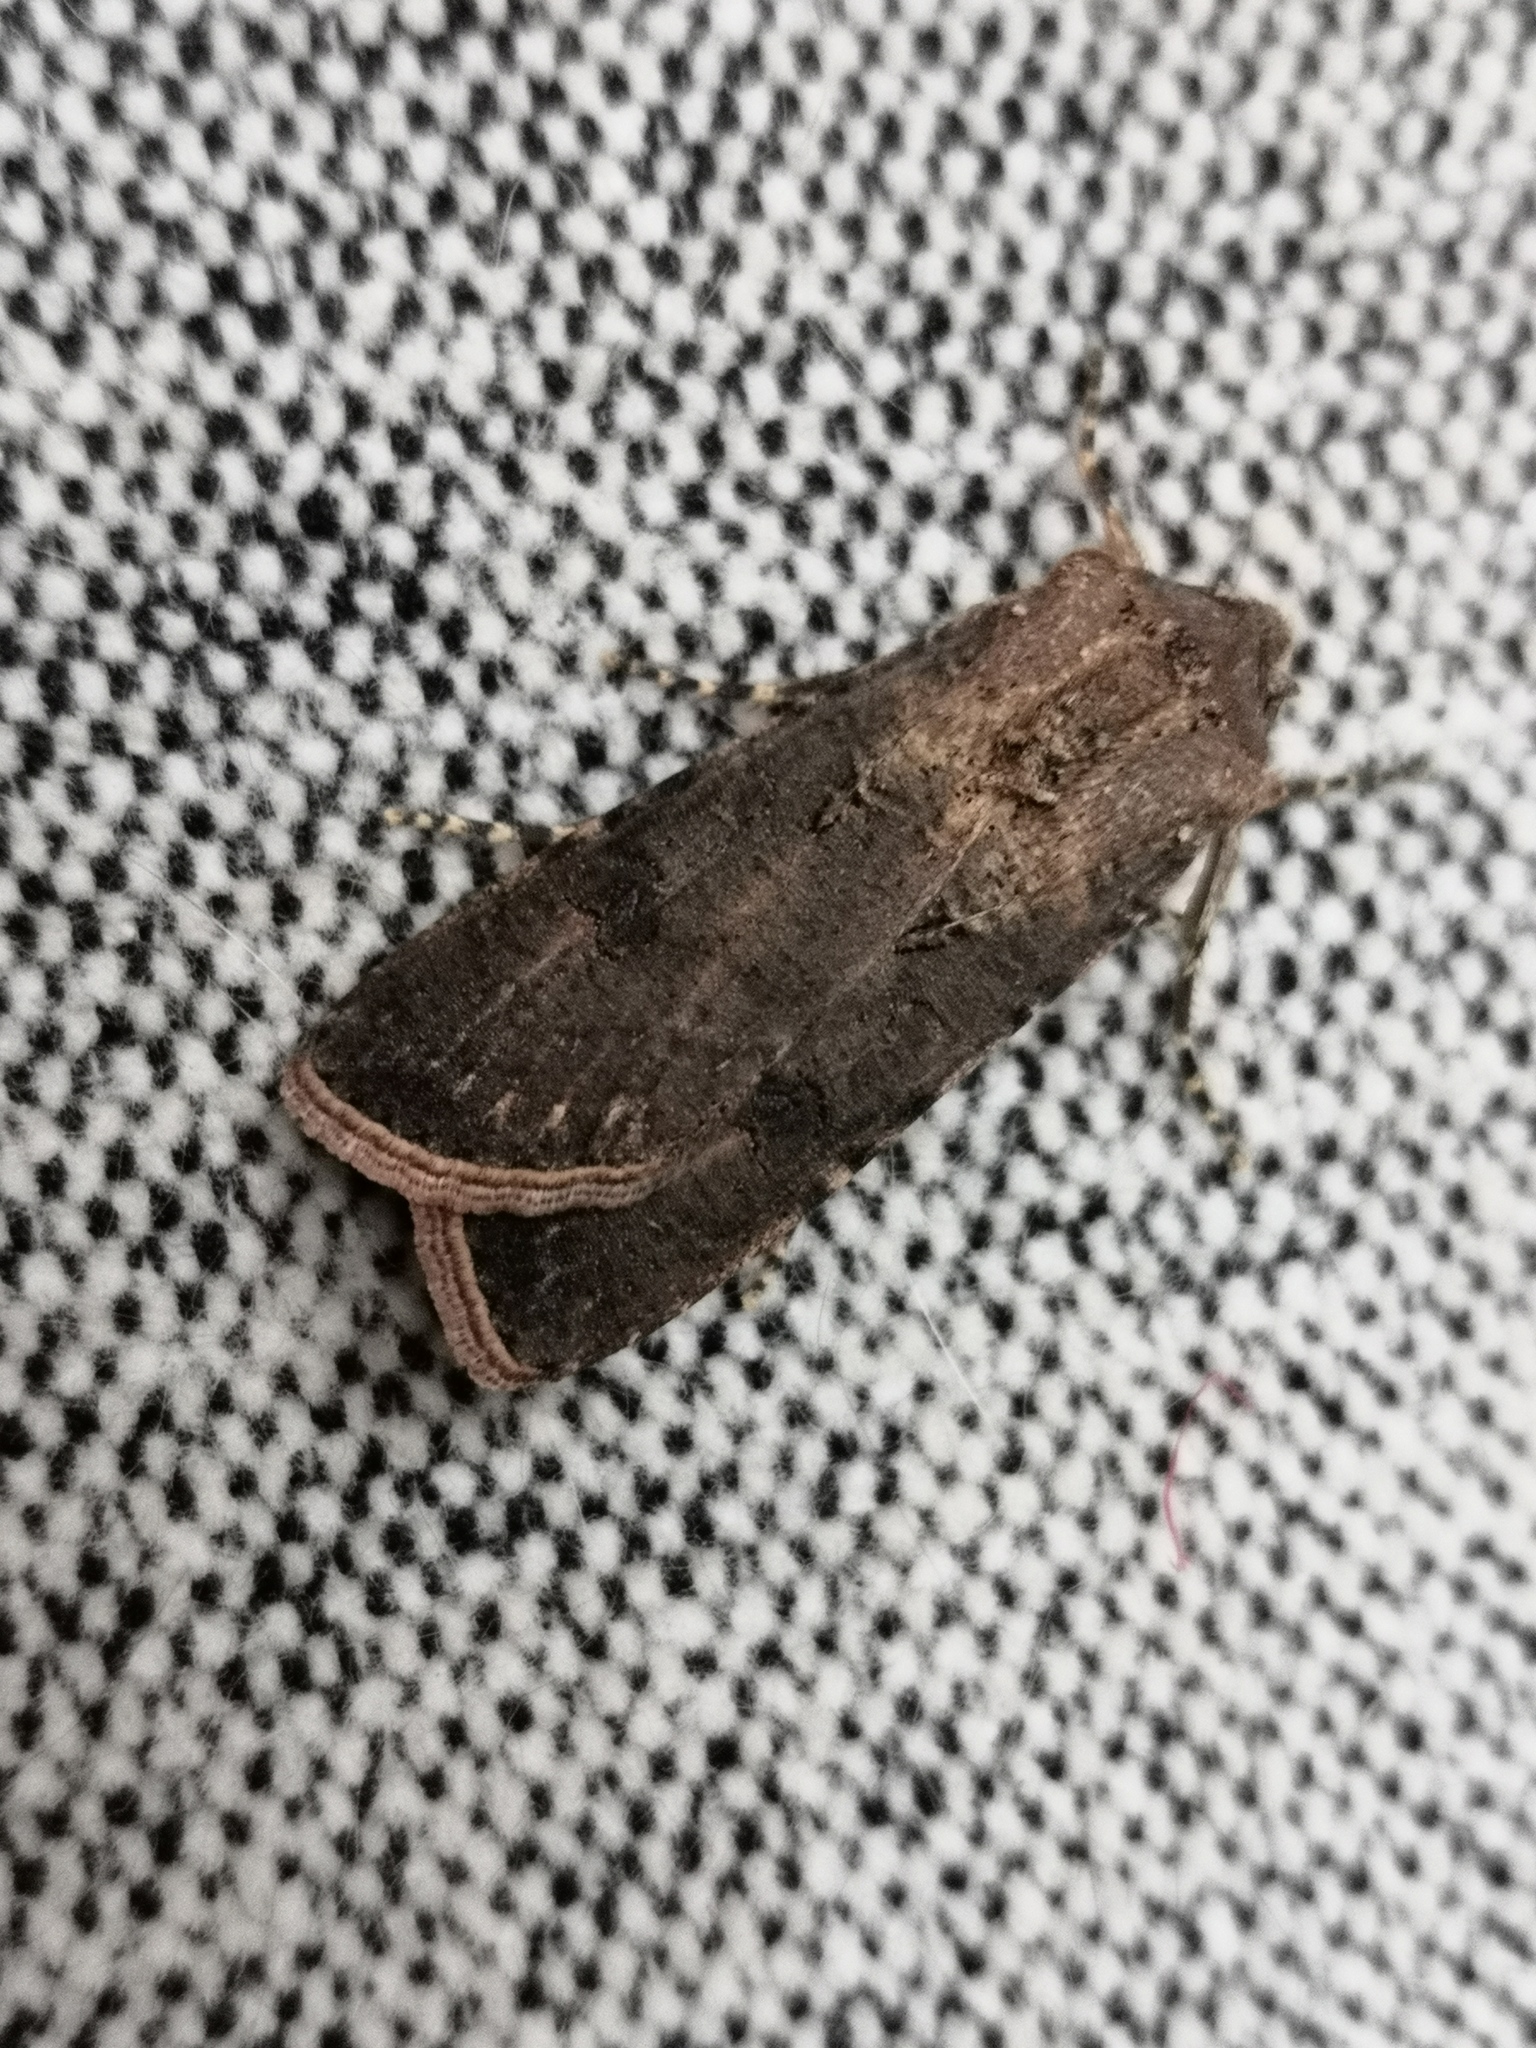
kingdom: Animalia
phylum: Arthropoda
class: Insecta
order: Lepidoptera
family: Noctuidae
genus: Agrotis
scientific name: Agrotis segetum
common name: Turnip moth
